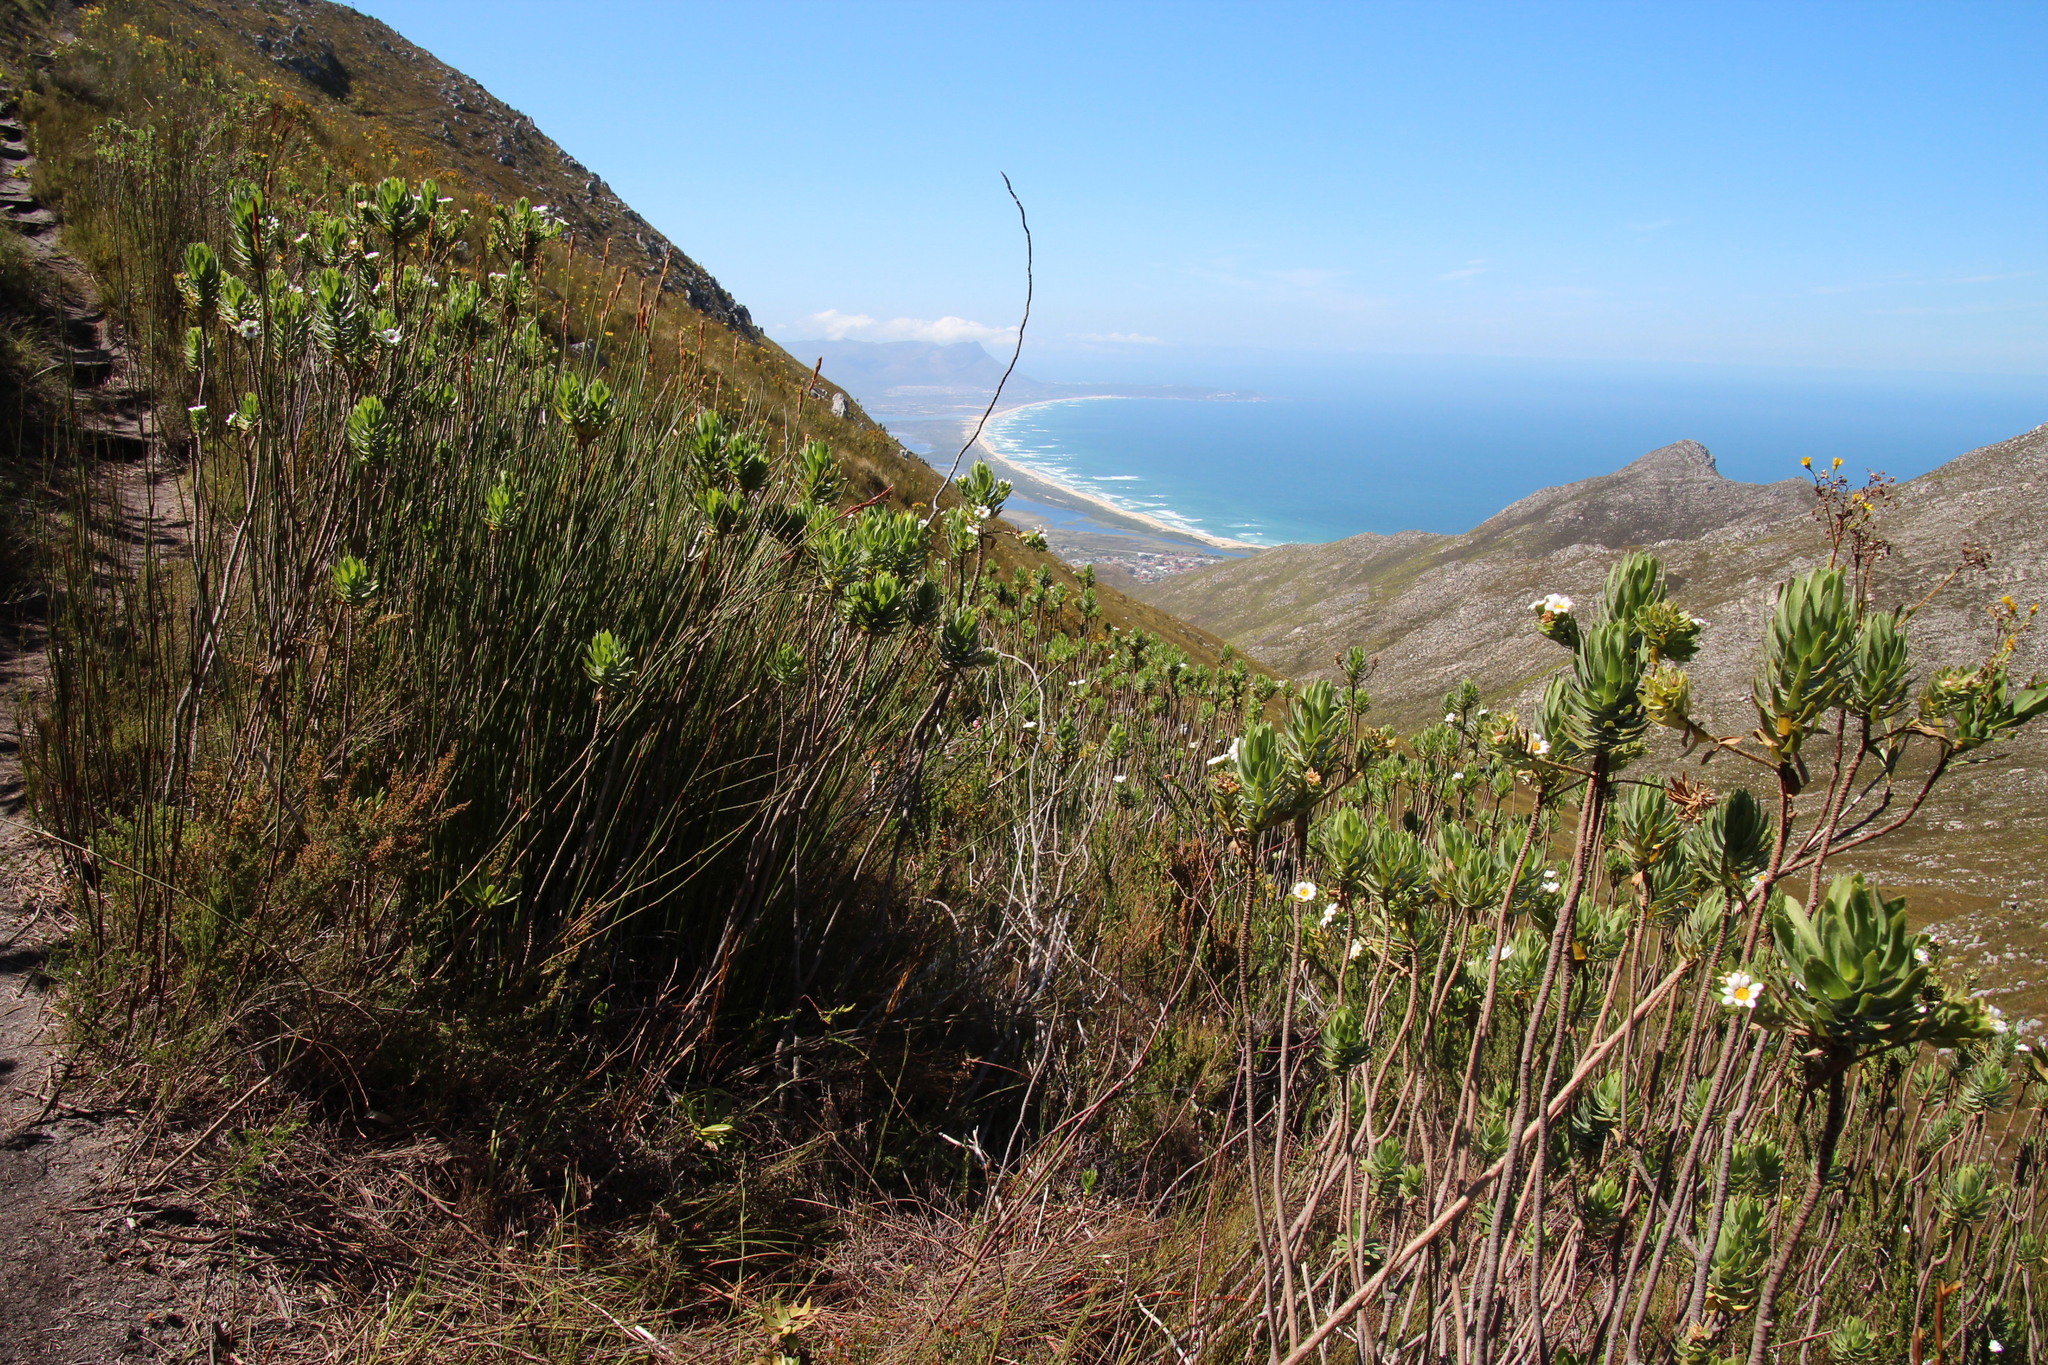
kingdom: Plantae
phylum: Tracheophyta
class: Magnoliopsida
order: Asterales
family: Asteraceae
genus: Osmitopsis
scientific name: Osmitopsis asteriscoides
